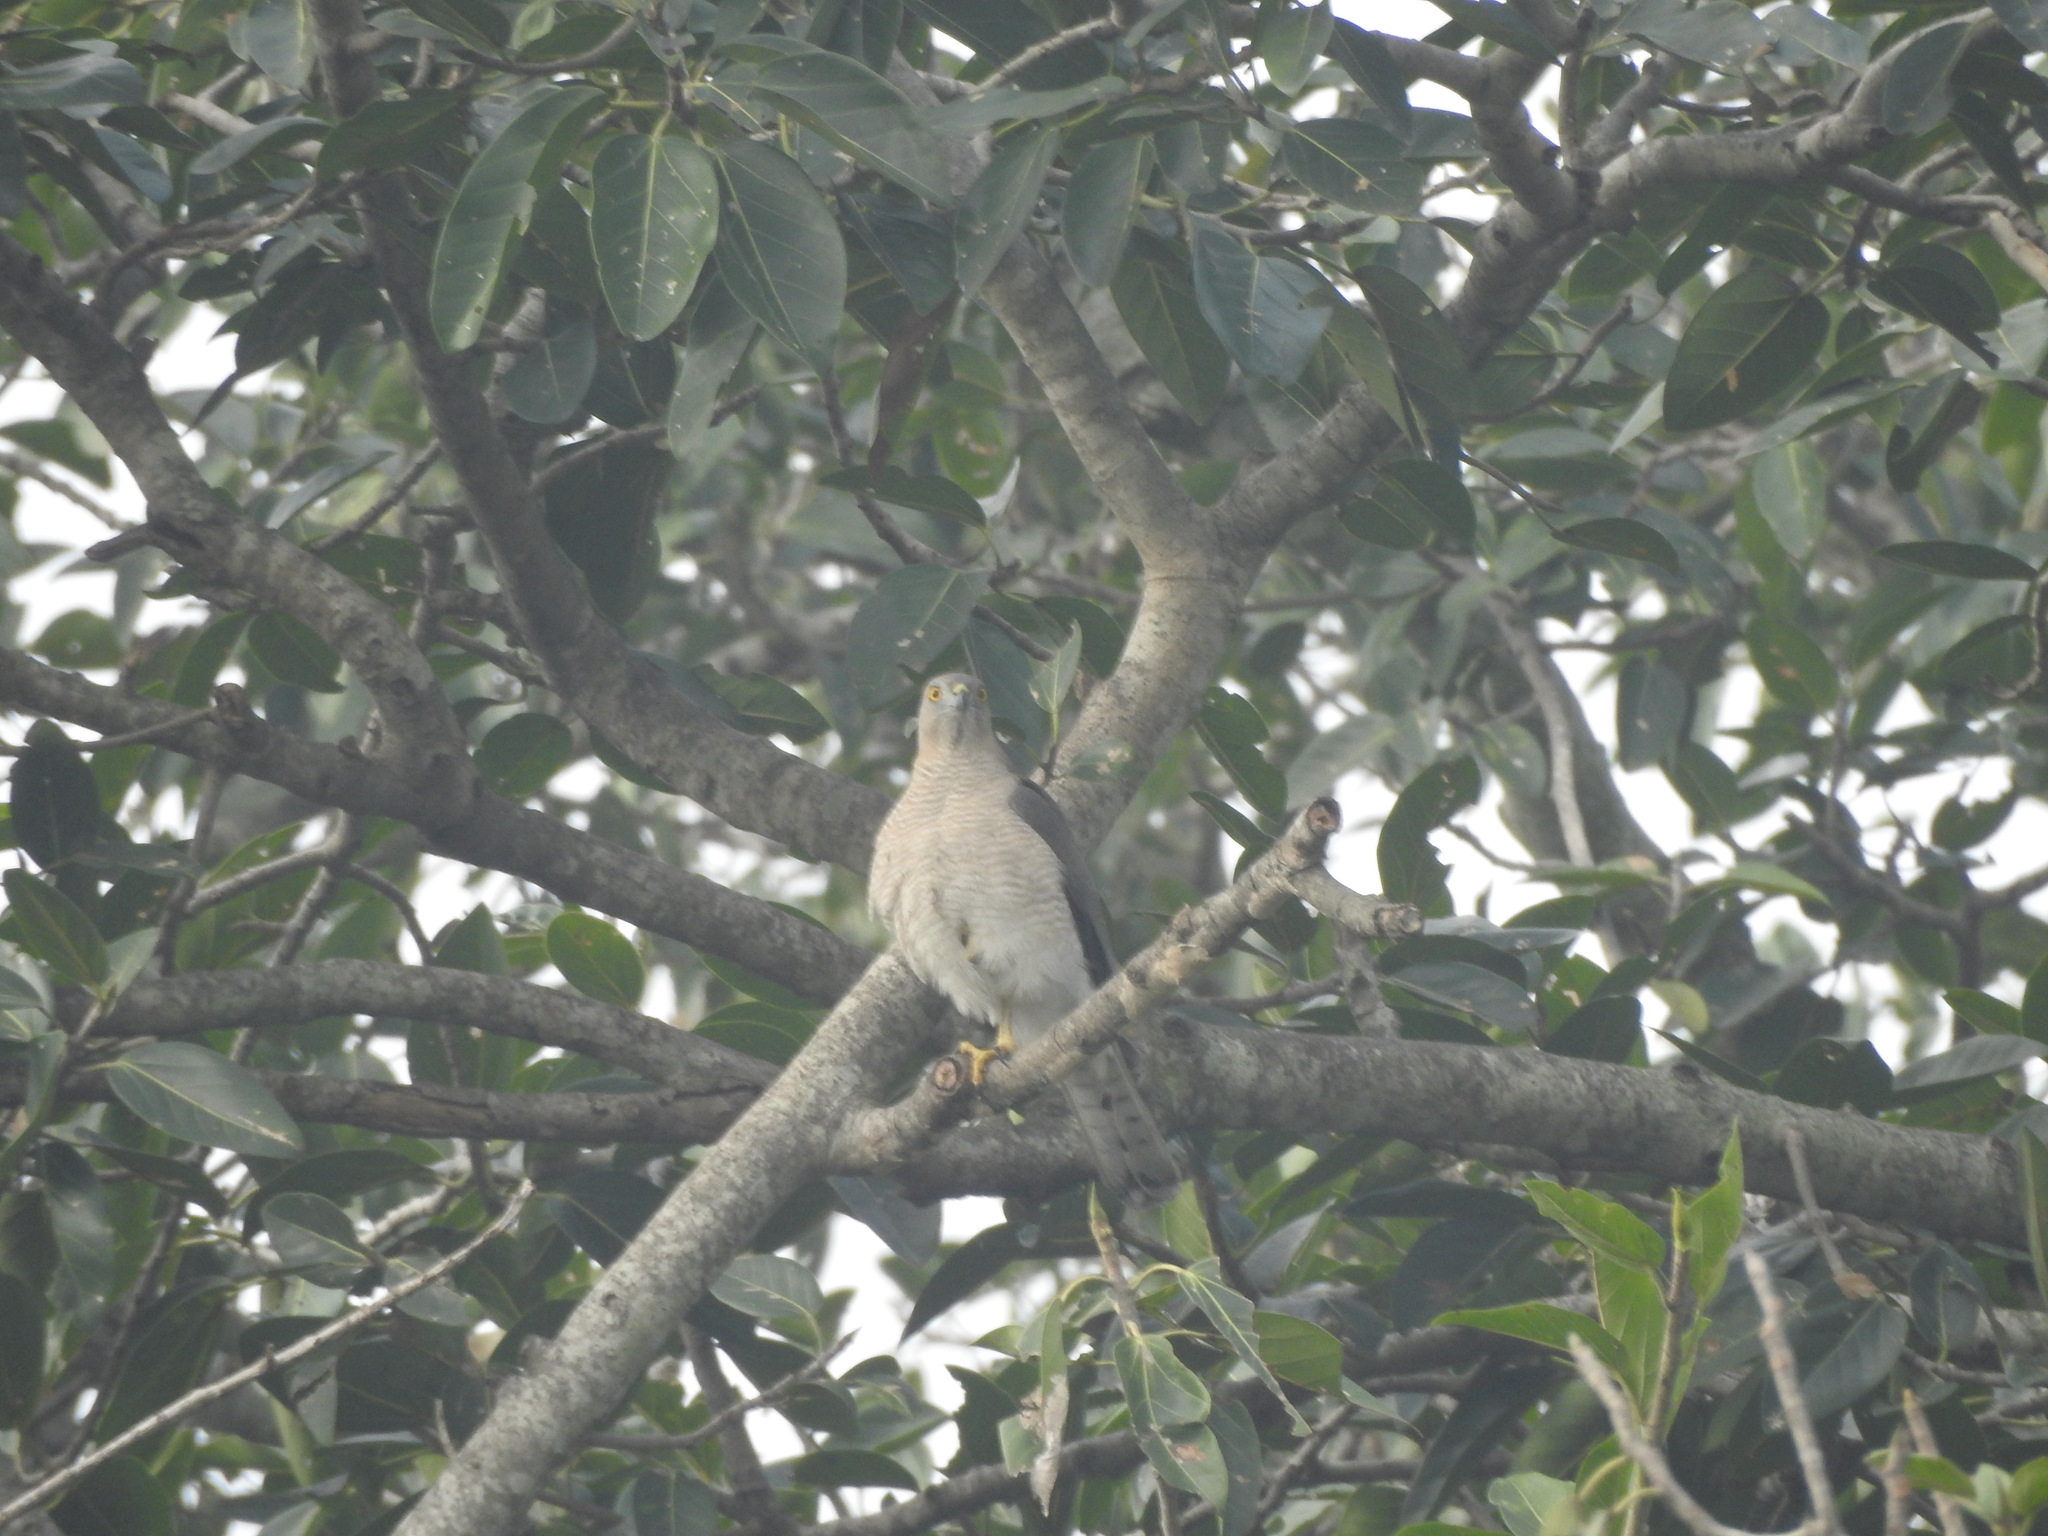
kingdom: Animalia
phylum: Chordata
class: Aves
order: Accipitriformes
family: Accipitridae
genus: Accipiter
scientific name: Accipiter badius
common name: Shikra
